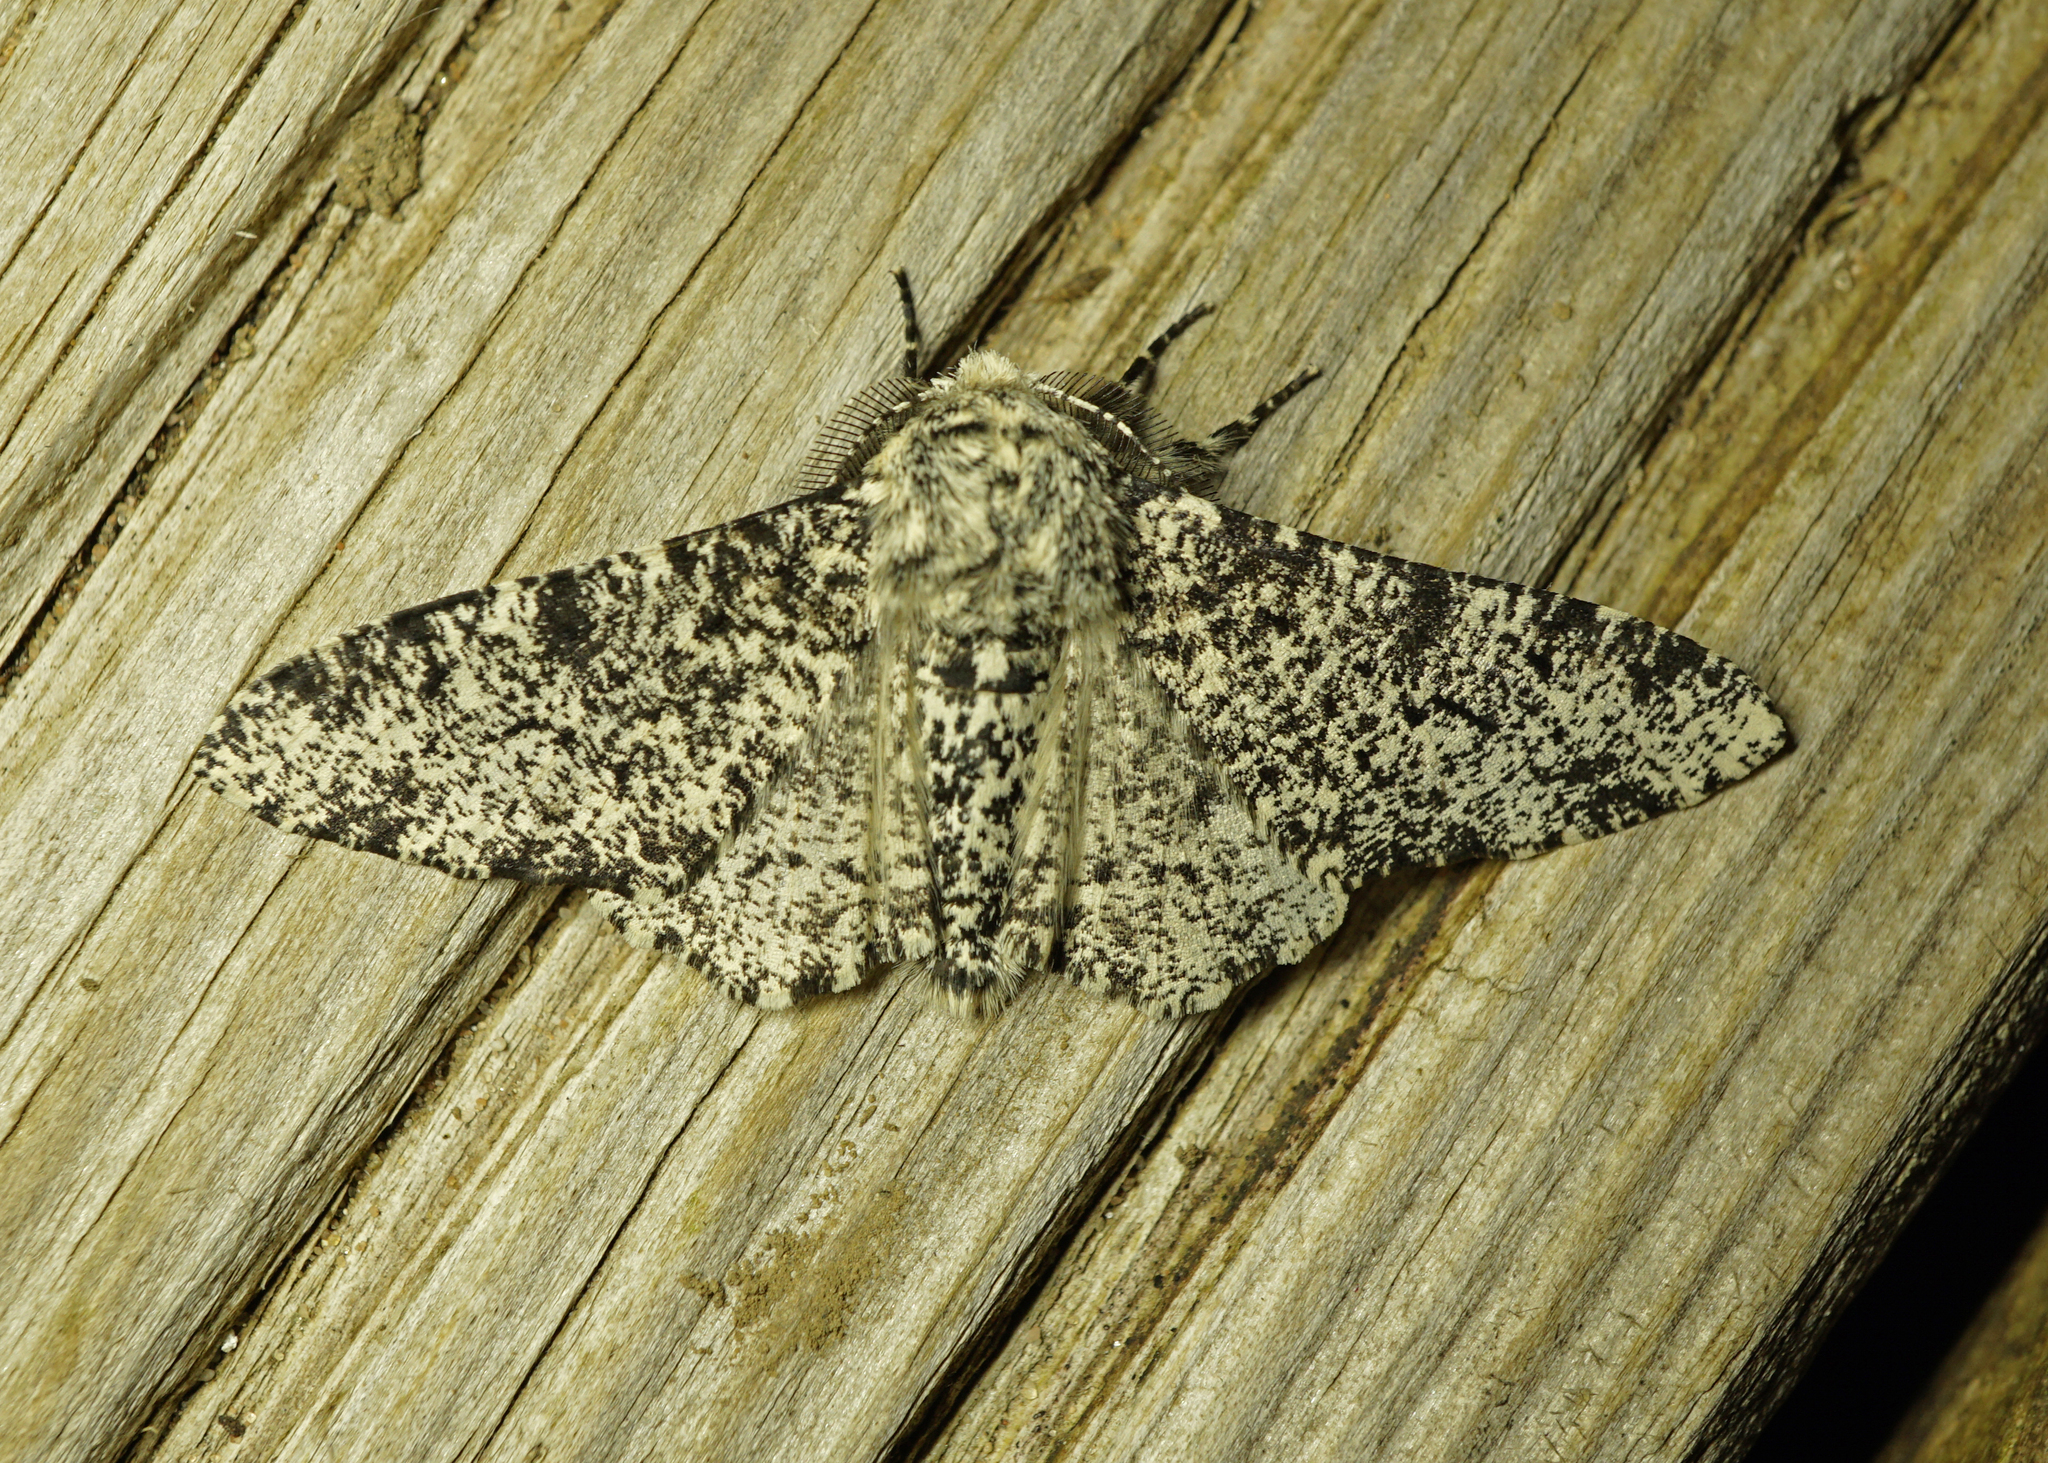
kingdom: Animalia
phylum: Arthropoda
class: Insecta
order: Lepidoptera
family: Geometridae
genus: Biston
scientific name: Biston betularia
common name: Peppered moth
